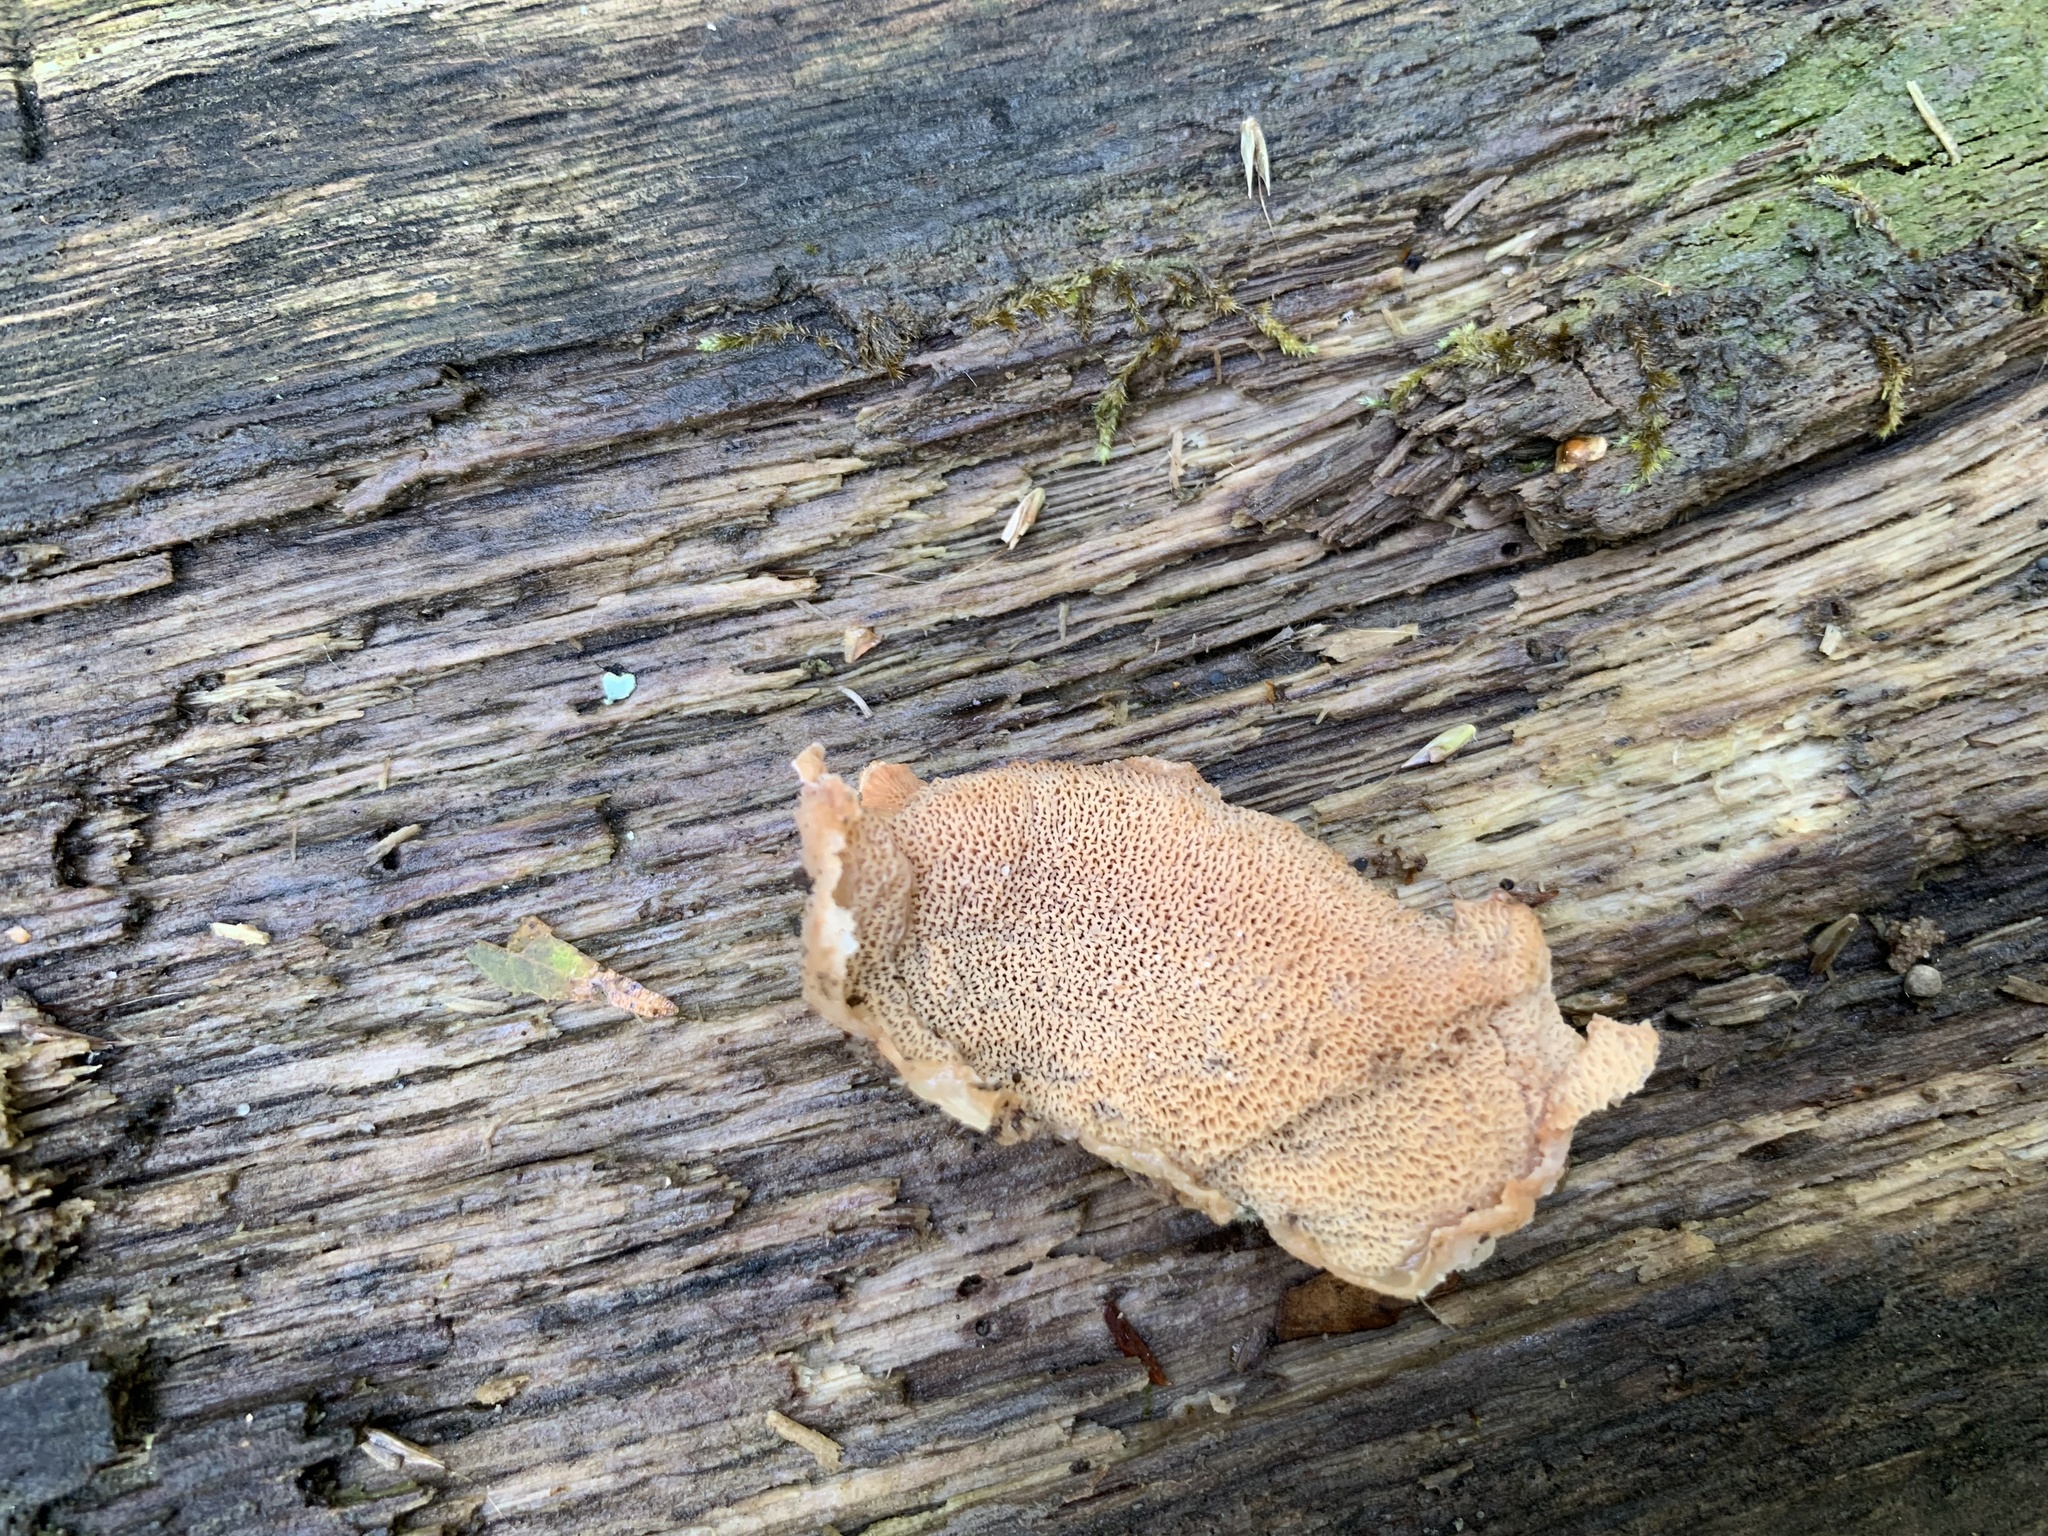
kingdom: Fungi
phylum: Basidiomycota
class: Agaricomycetes
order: Polyporales
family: Meruliaceae
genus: Phlebia
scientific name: Phlebia tremellosa
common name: Jelly rot
